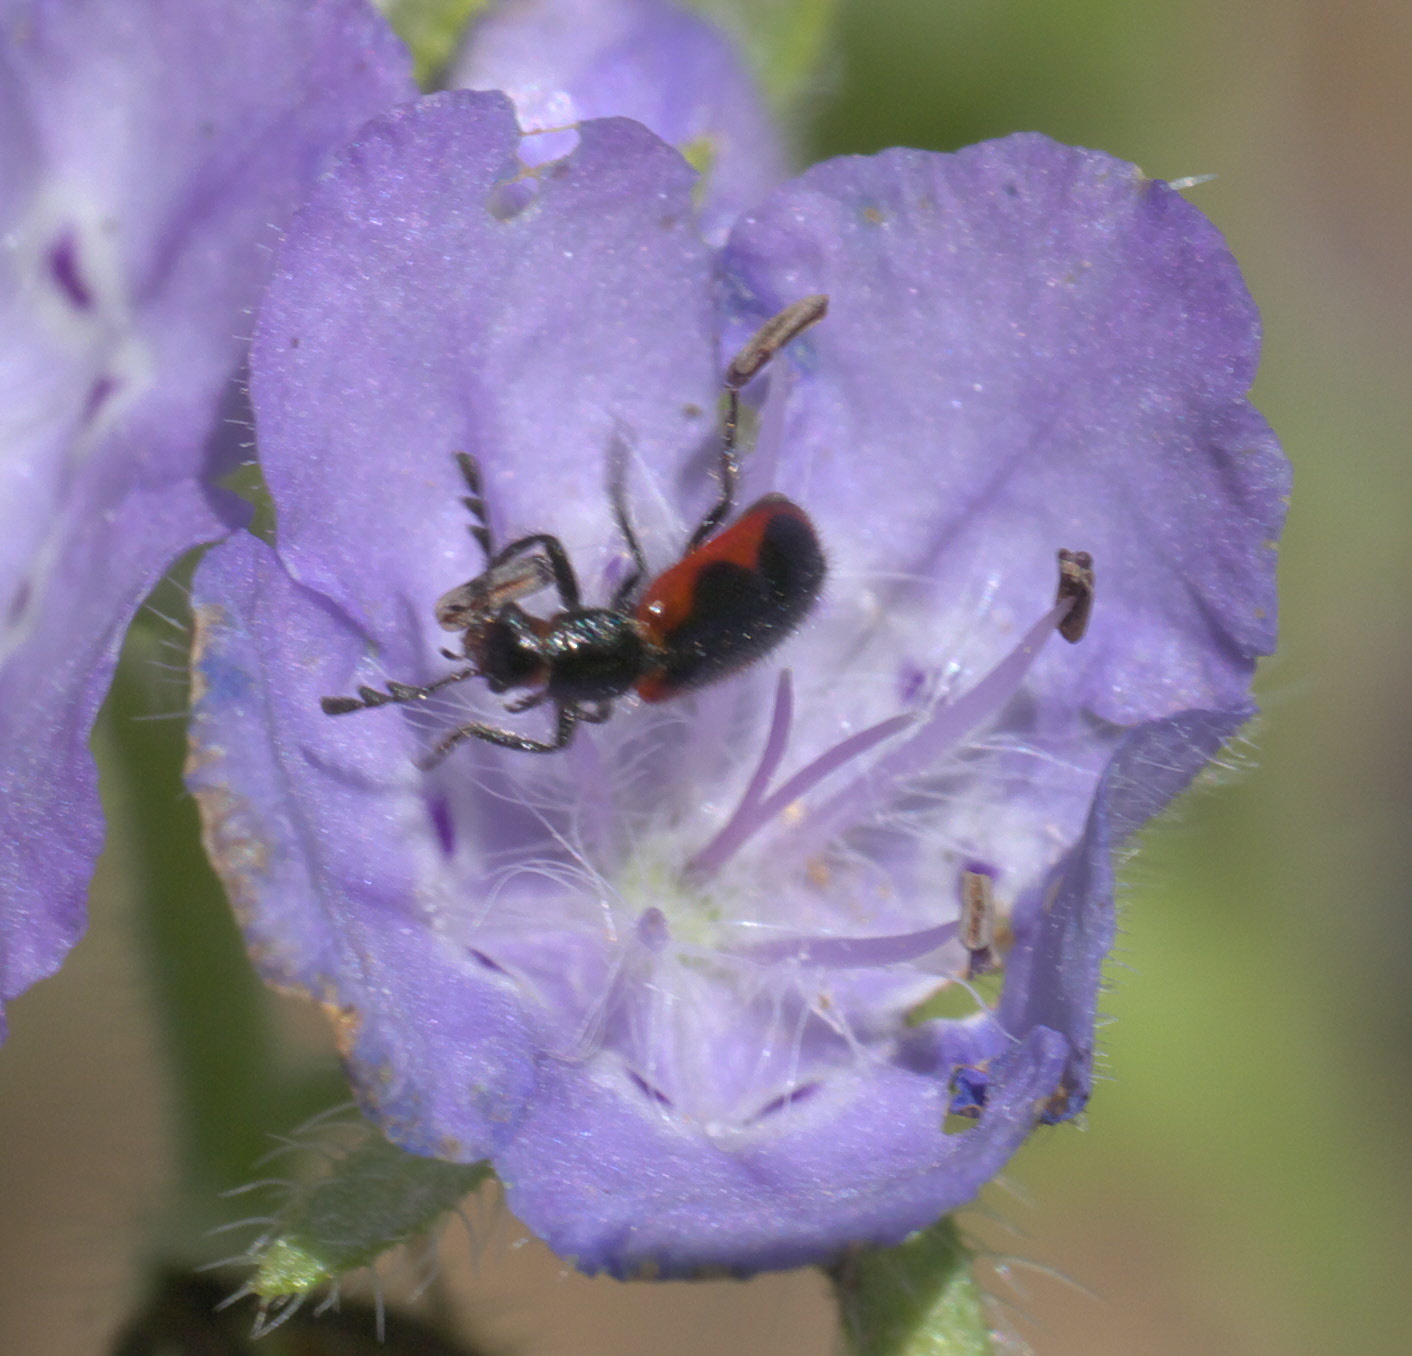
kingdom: Animalia
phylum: Arthropoda
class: Insecta
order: Coleoptera
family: Cleridae
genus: Pelonides
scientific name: Pelonides quadripunctatus
